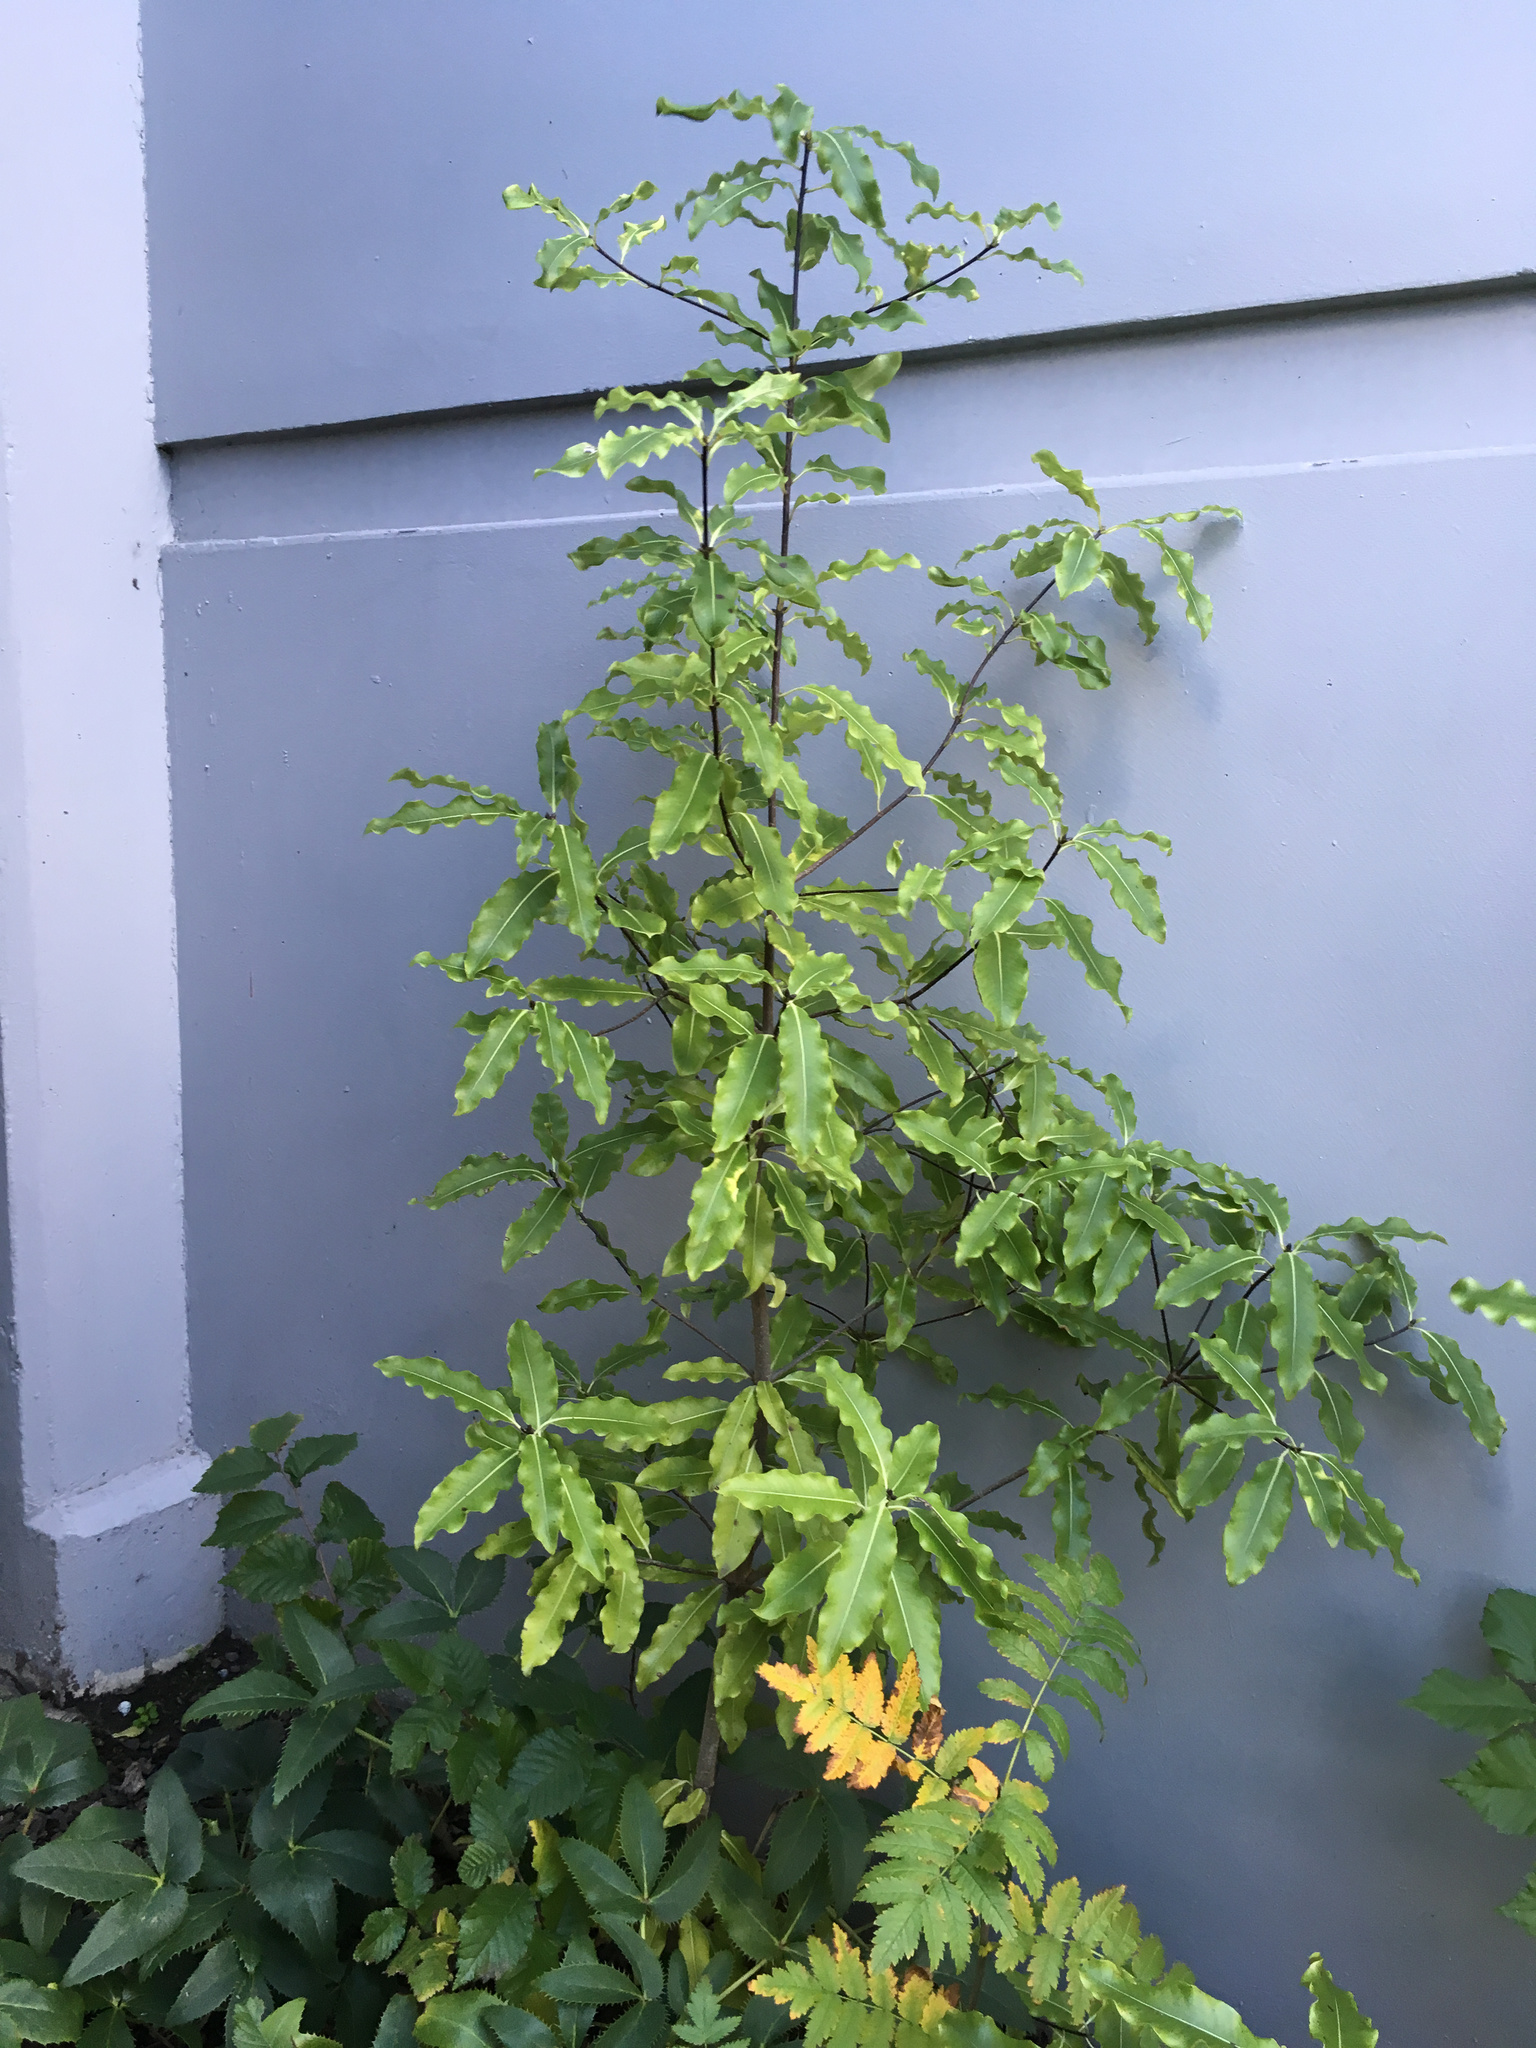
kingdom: Plantae
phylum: Tracheophyta
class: Magnoliopsida
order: Apiales
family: Pittosporaceae
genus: Pittosporum
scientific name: Pittosporum eugenioides
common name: Lemonwood
